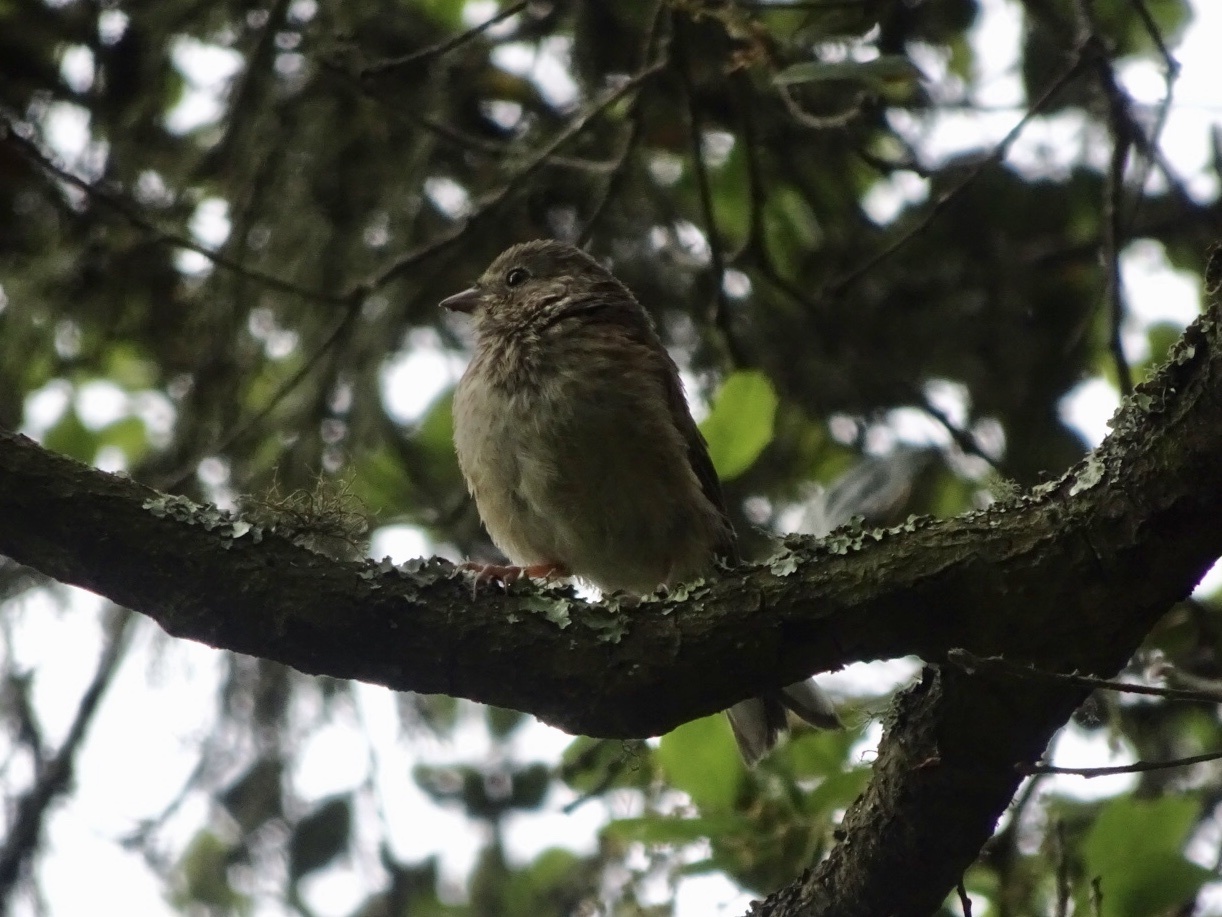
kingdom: Animalia
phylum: Chordata
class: Aves
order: Passeriformes
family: Passerellidae
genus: Junco
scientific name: Junco hyemalis
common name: Dark-eyed junco
